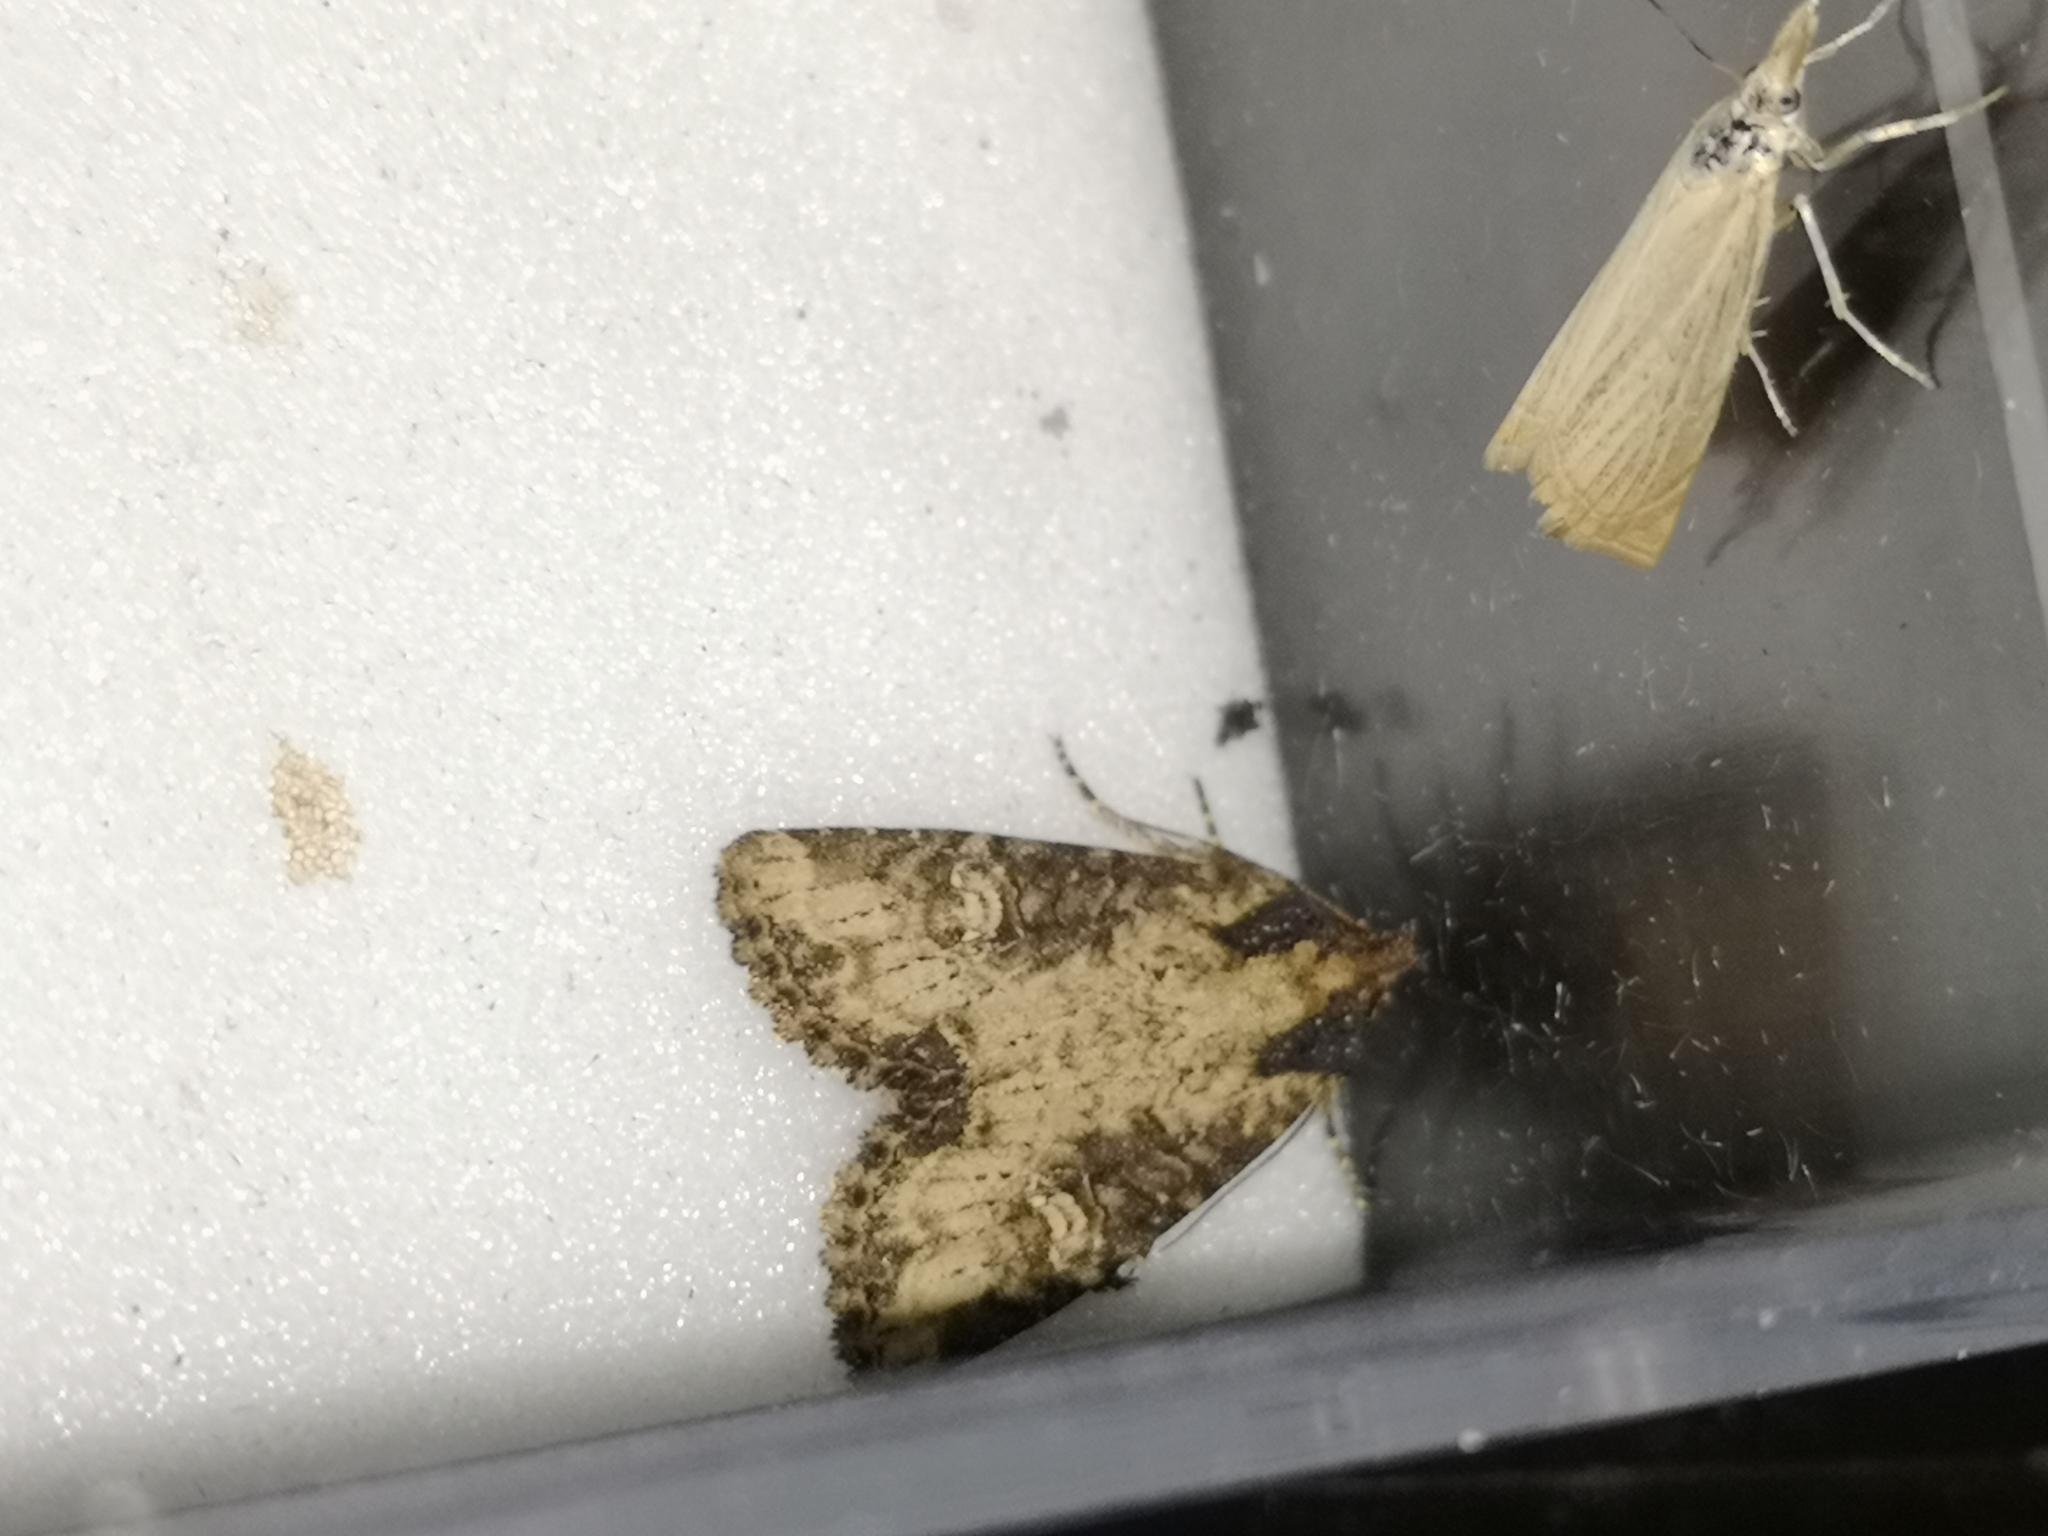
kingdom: Animalia
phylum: Arthropoda
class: Insecta
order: Lepidoptera
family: Noctuidae
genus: Mesapamea
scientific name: Mesapamea
